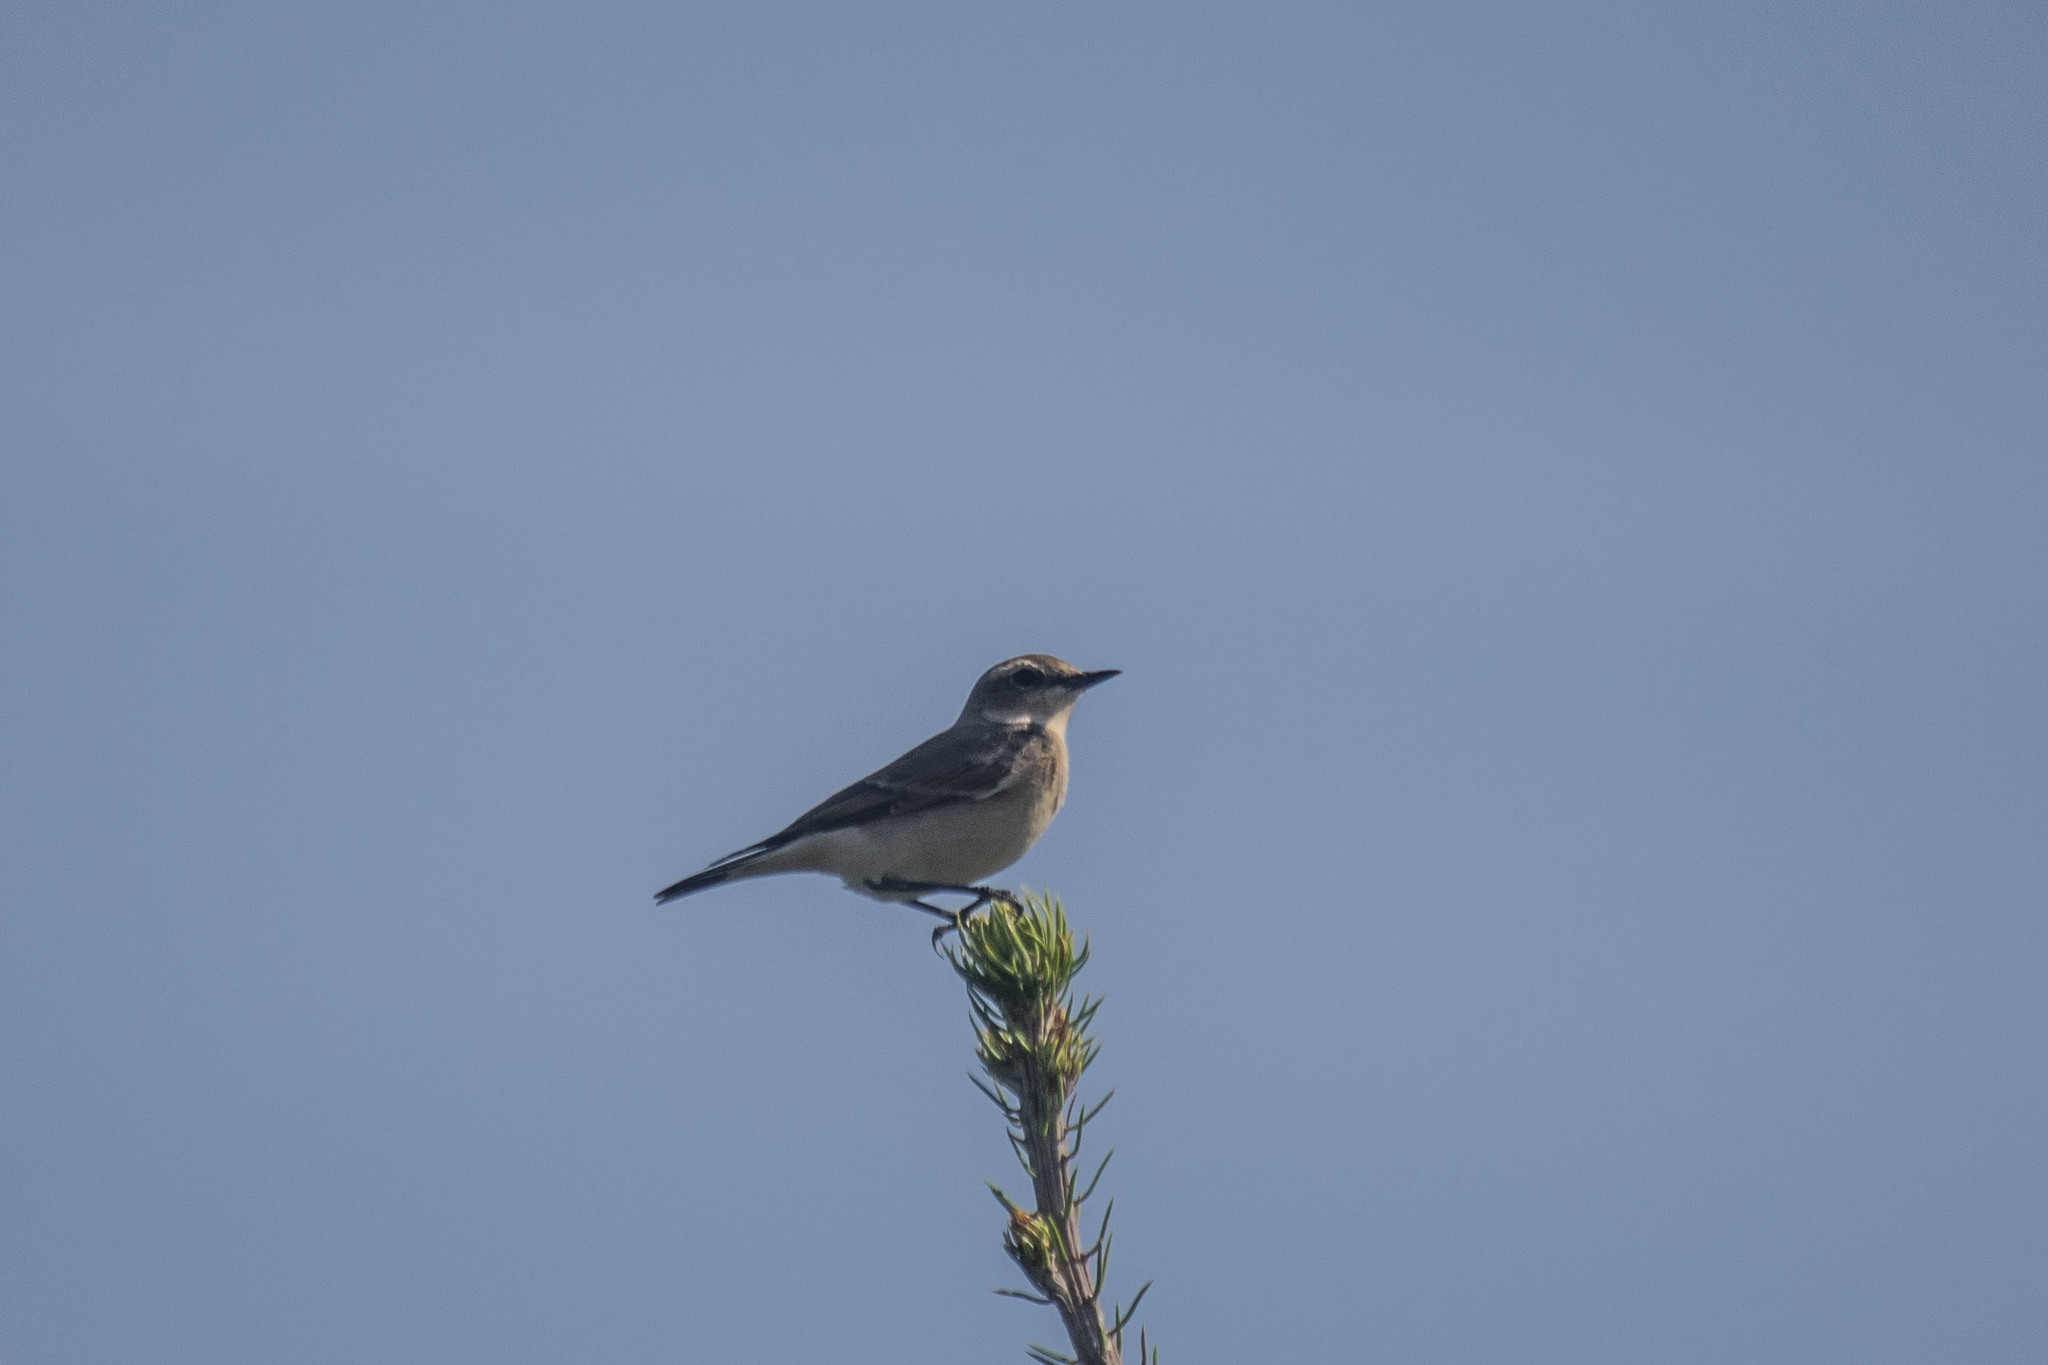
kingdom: Animalia
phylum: Chordata
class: Aves
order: Passeriformes
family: Muscicapidae
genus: Oenanthe
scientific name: Oenanthe oenanthe
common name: Northern wheatear
